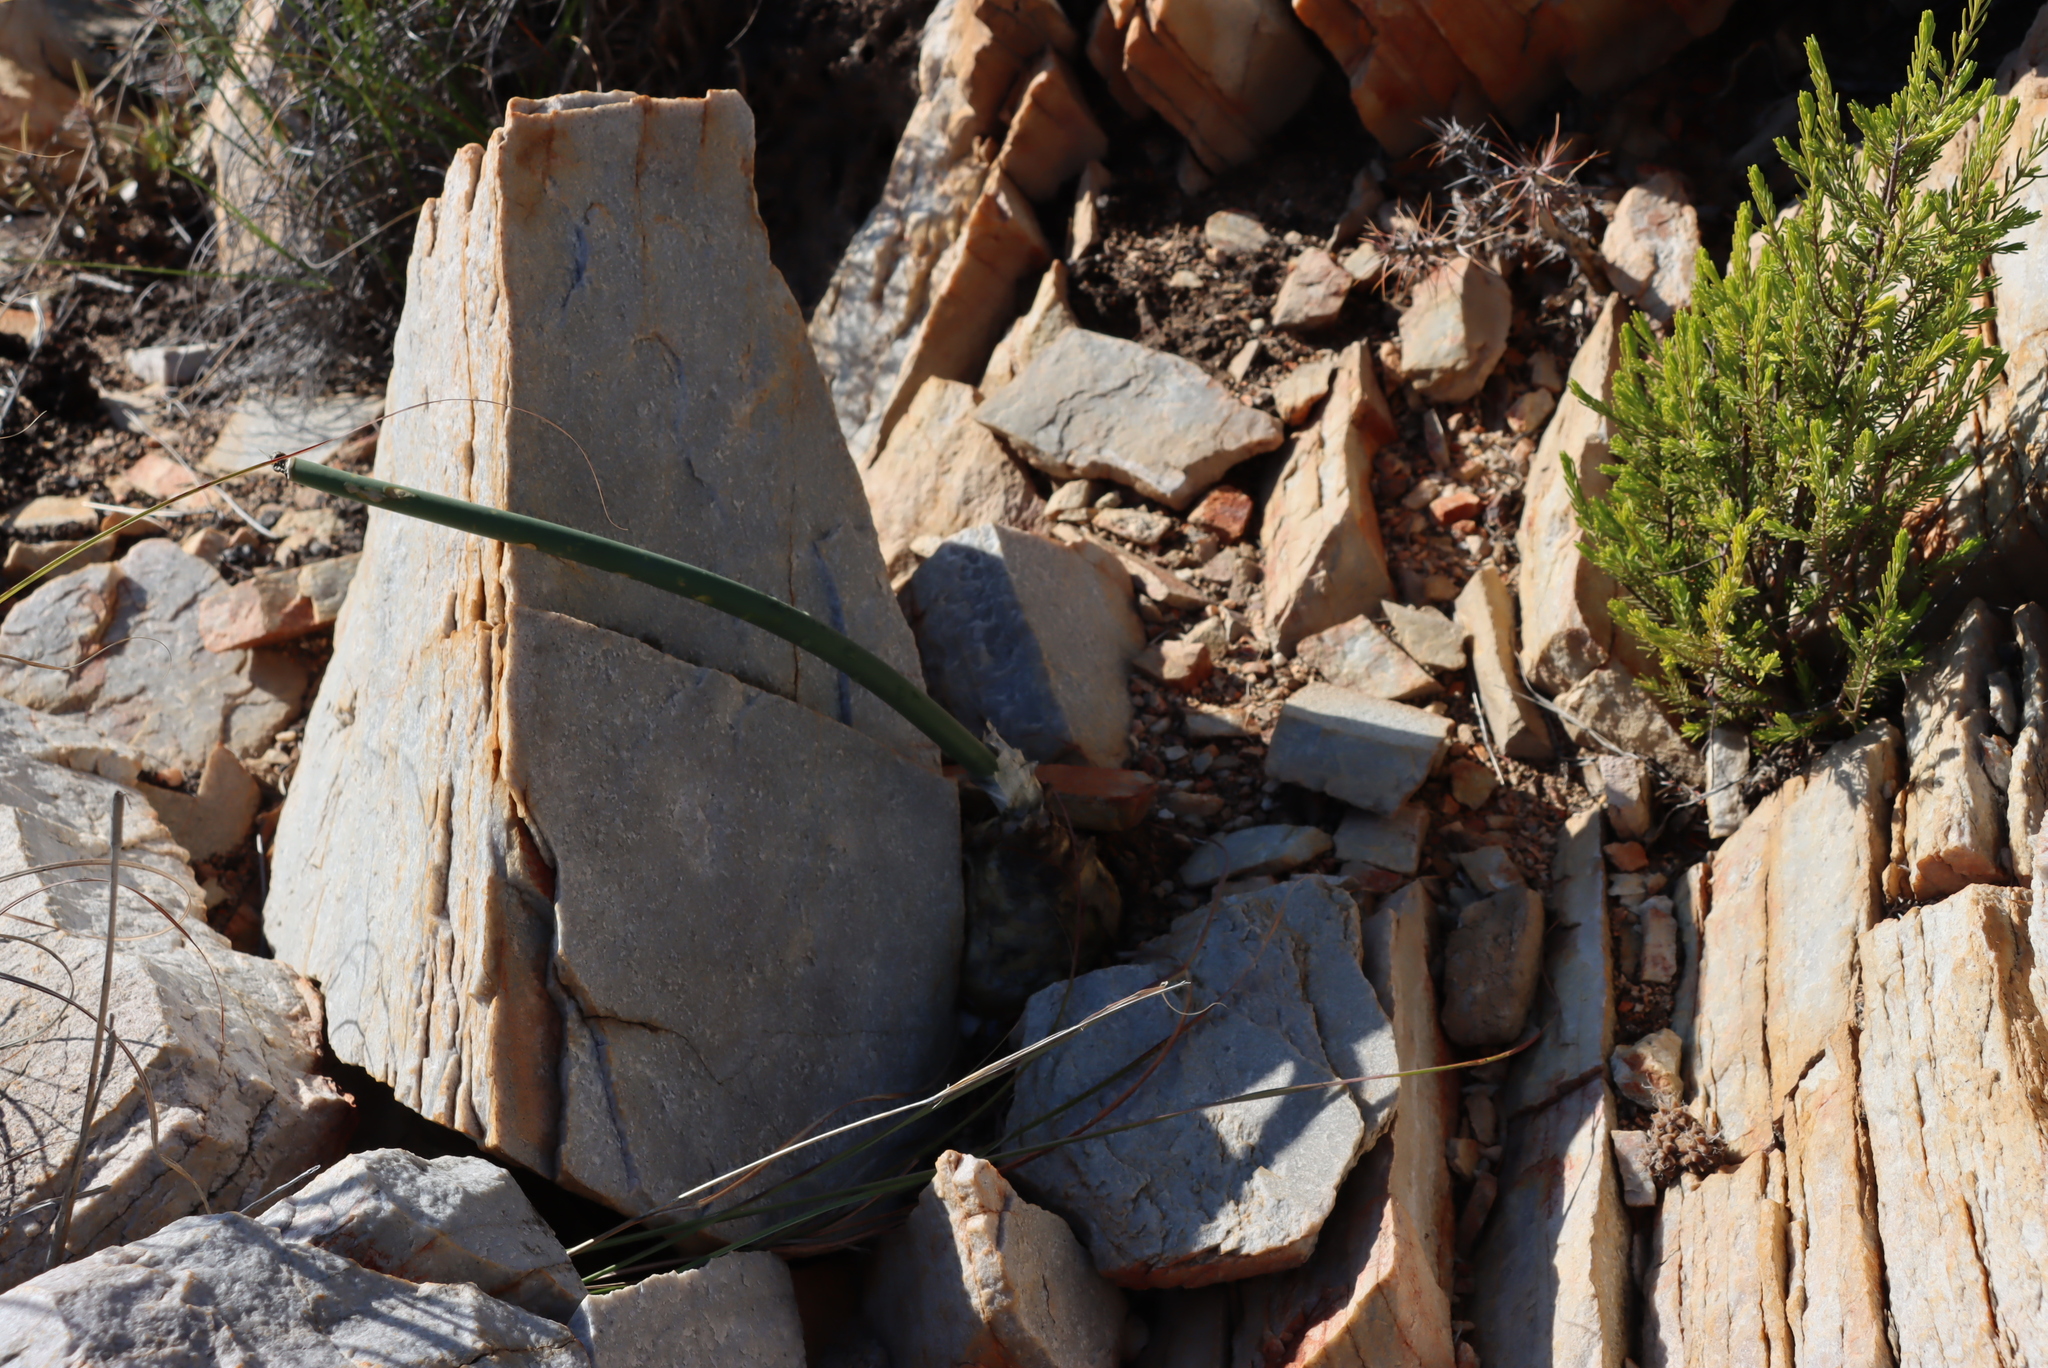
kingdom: Plantae
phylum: Tracheophyta
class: Liliopsida
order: Asparagales
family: Asparagaceae
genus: Drimia
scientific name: Drimia anomala
